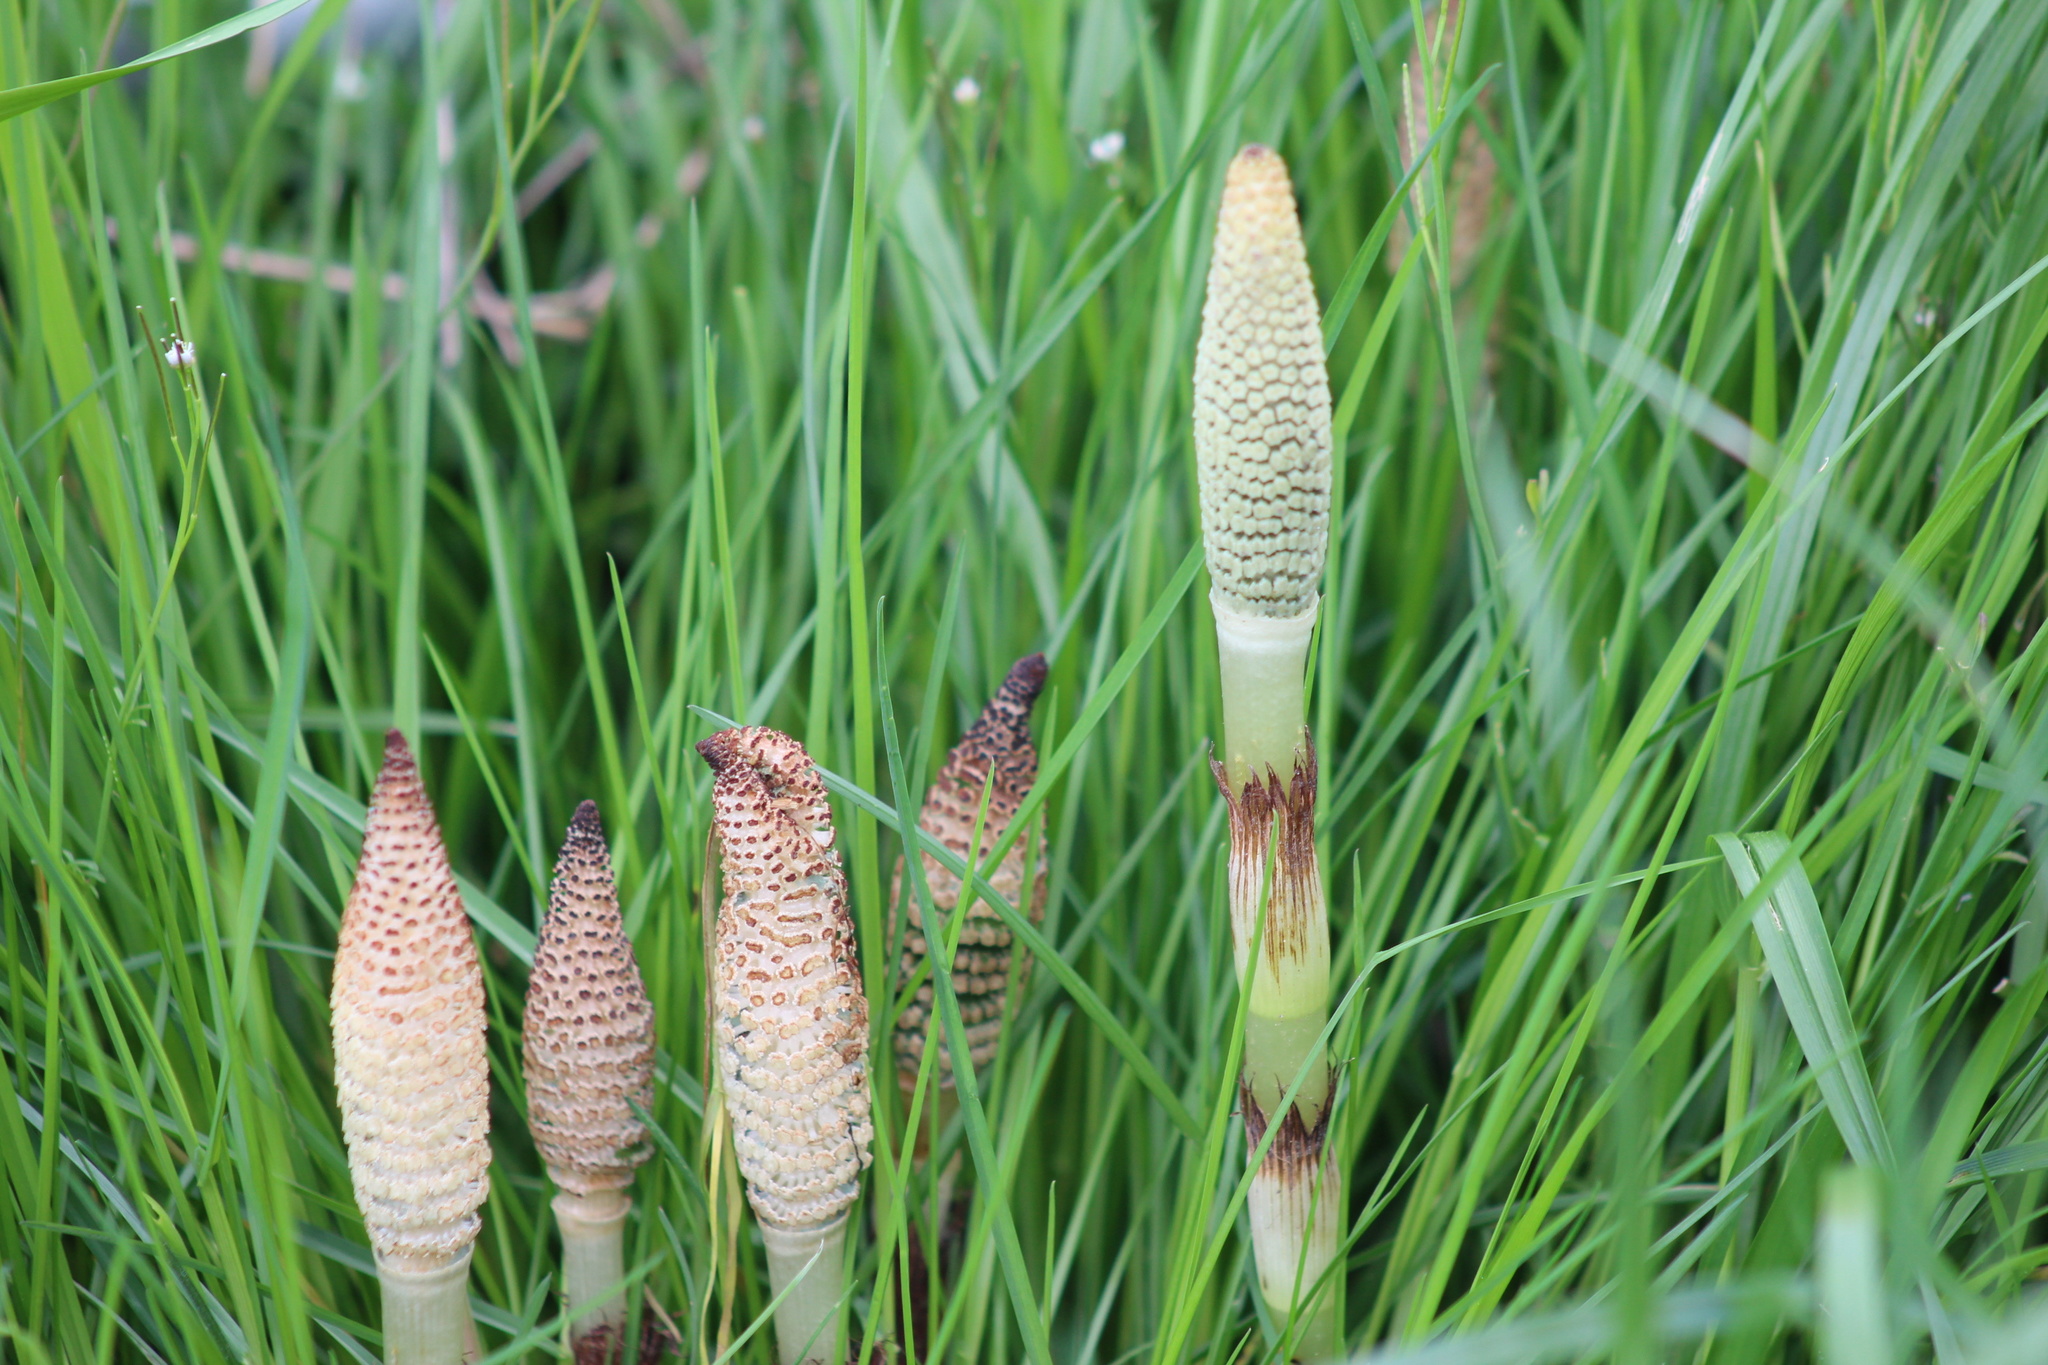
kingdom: Plantae
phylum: Tracheophyta
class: Polypodiopsida
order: Equisetales
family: Equisetaceae
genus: Equisetum
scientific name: Equisetum braunii
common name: Braun's horsetail
